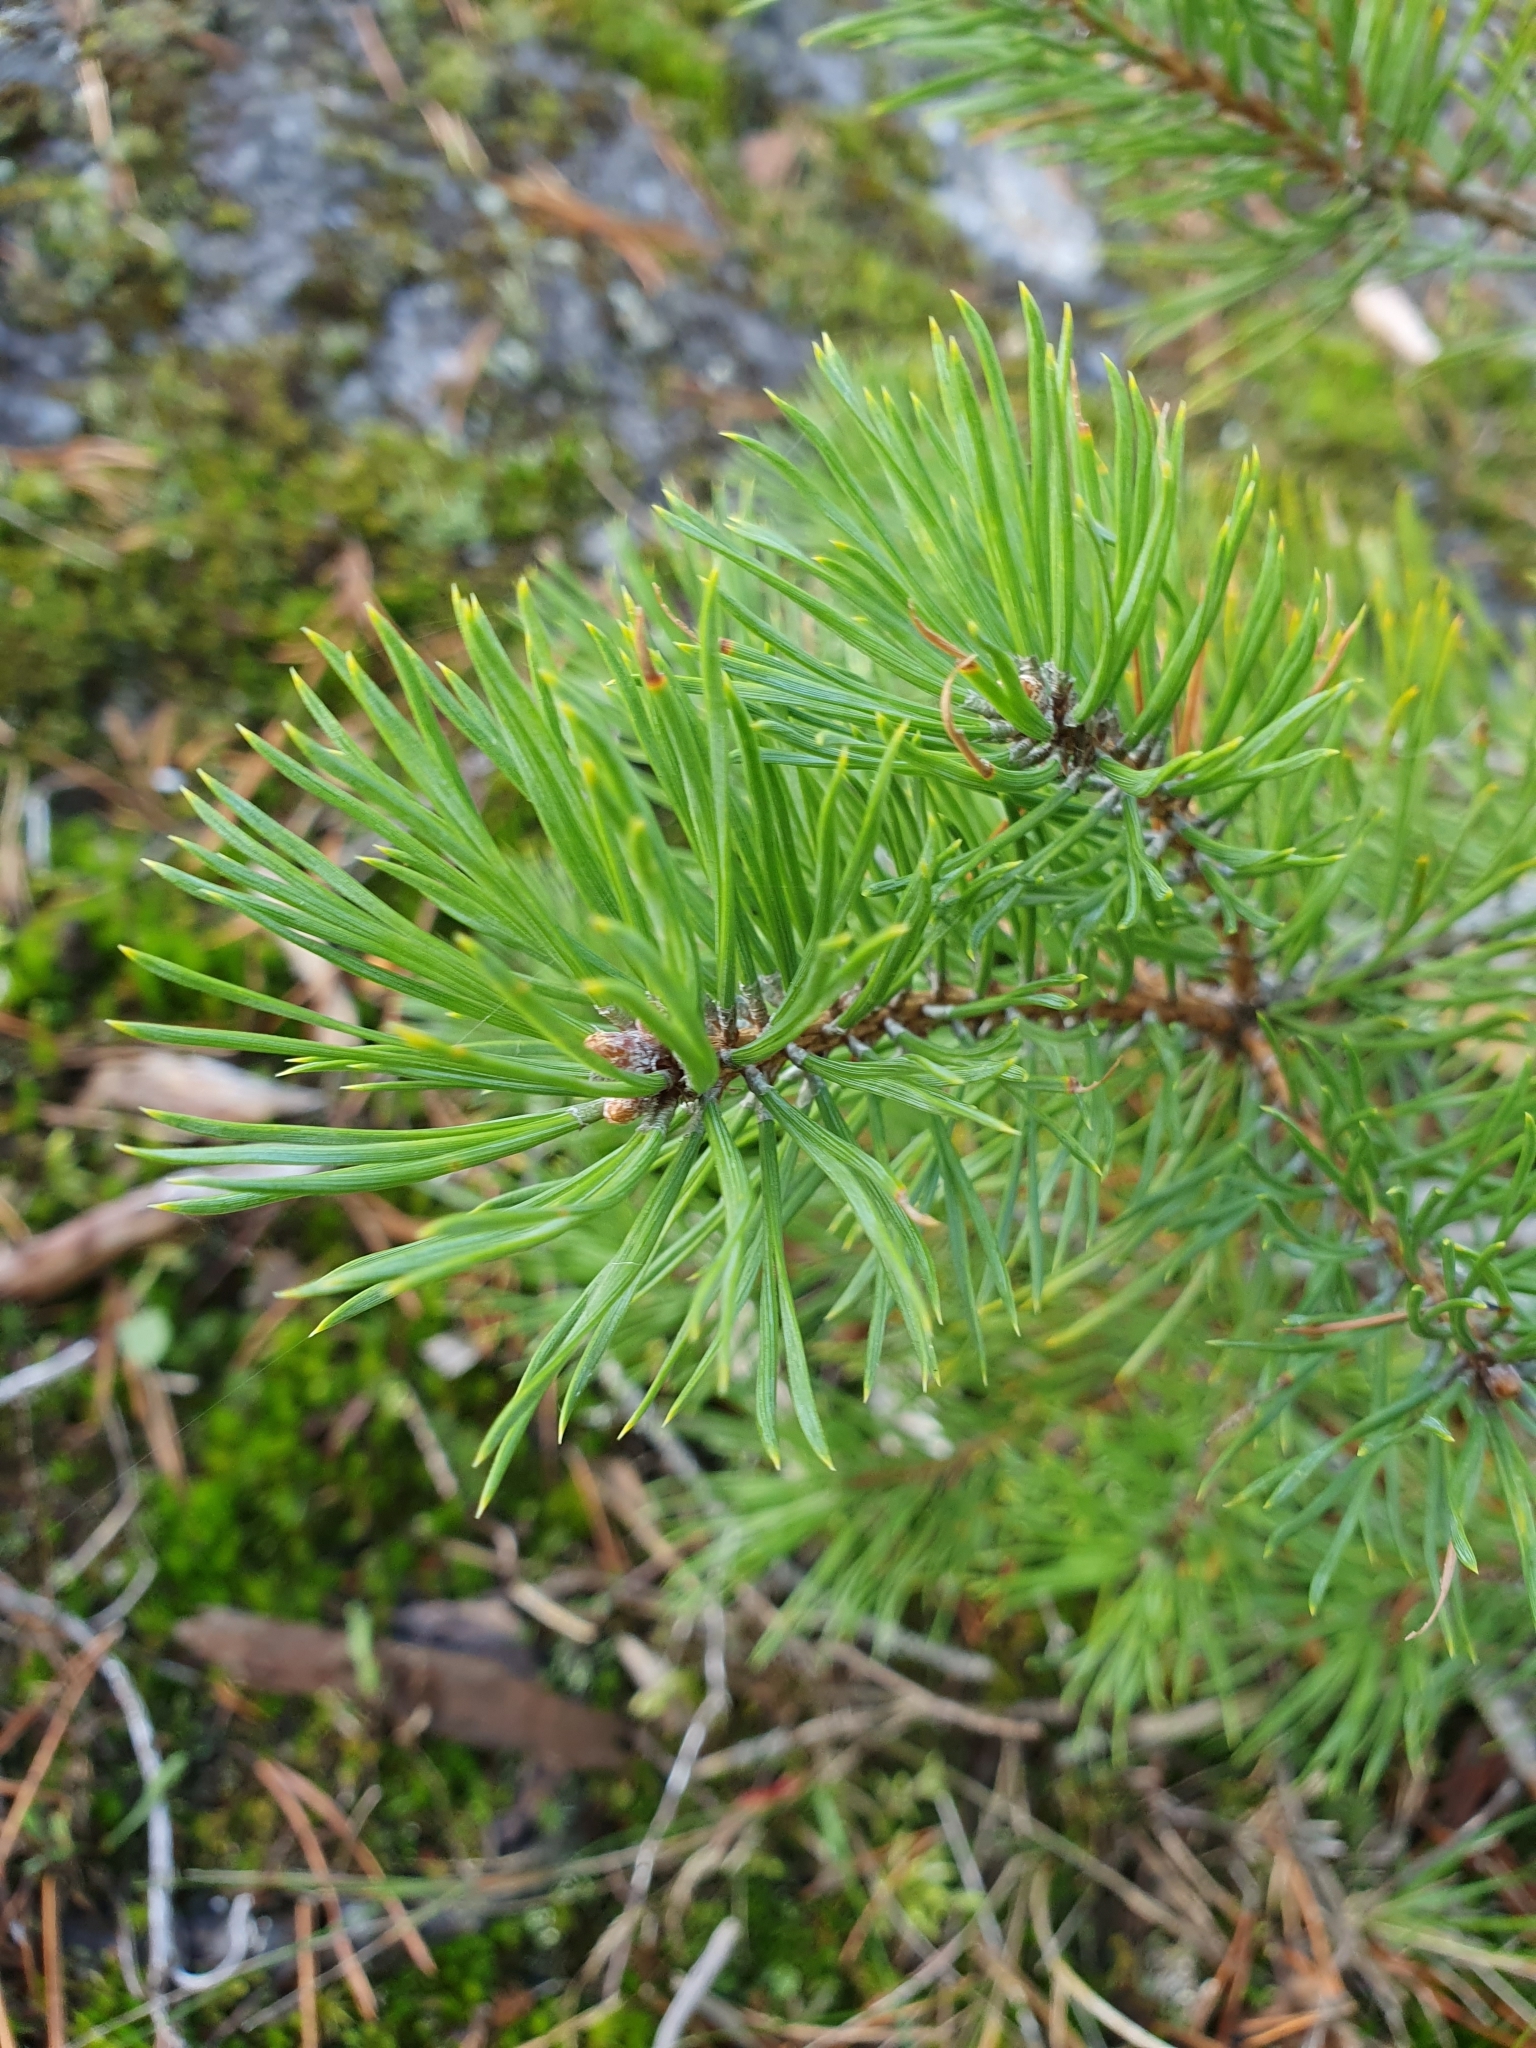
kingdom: Plantae
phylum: Tracheophyta
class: Pinopsida
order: Pinales
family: Pinaceae
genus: Pinus
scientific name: Pinus sylvestris
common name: Scots pine
